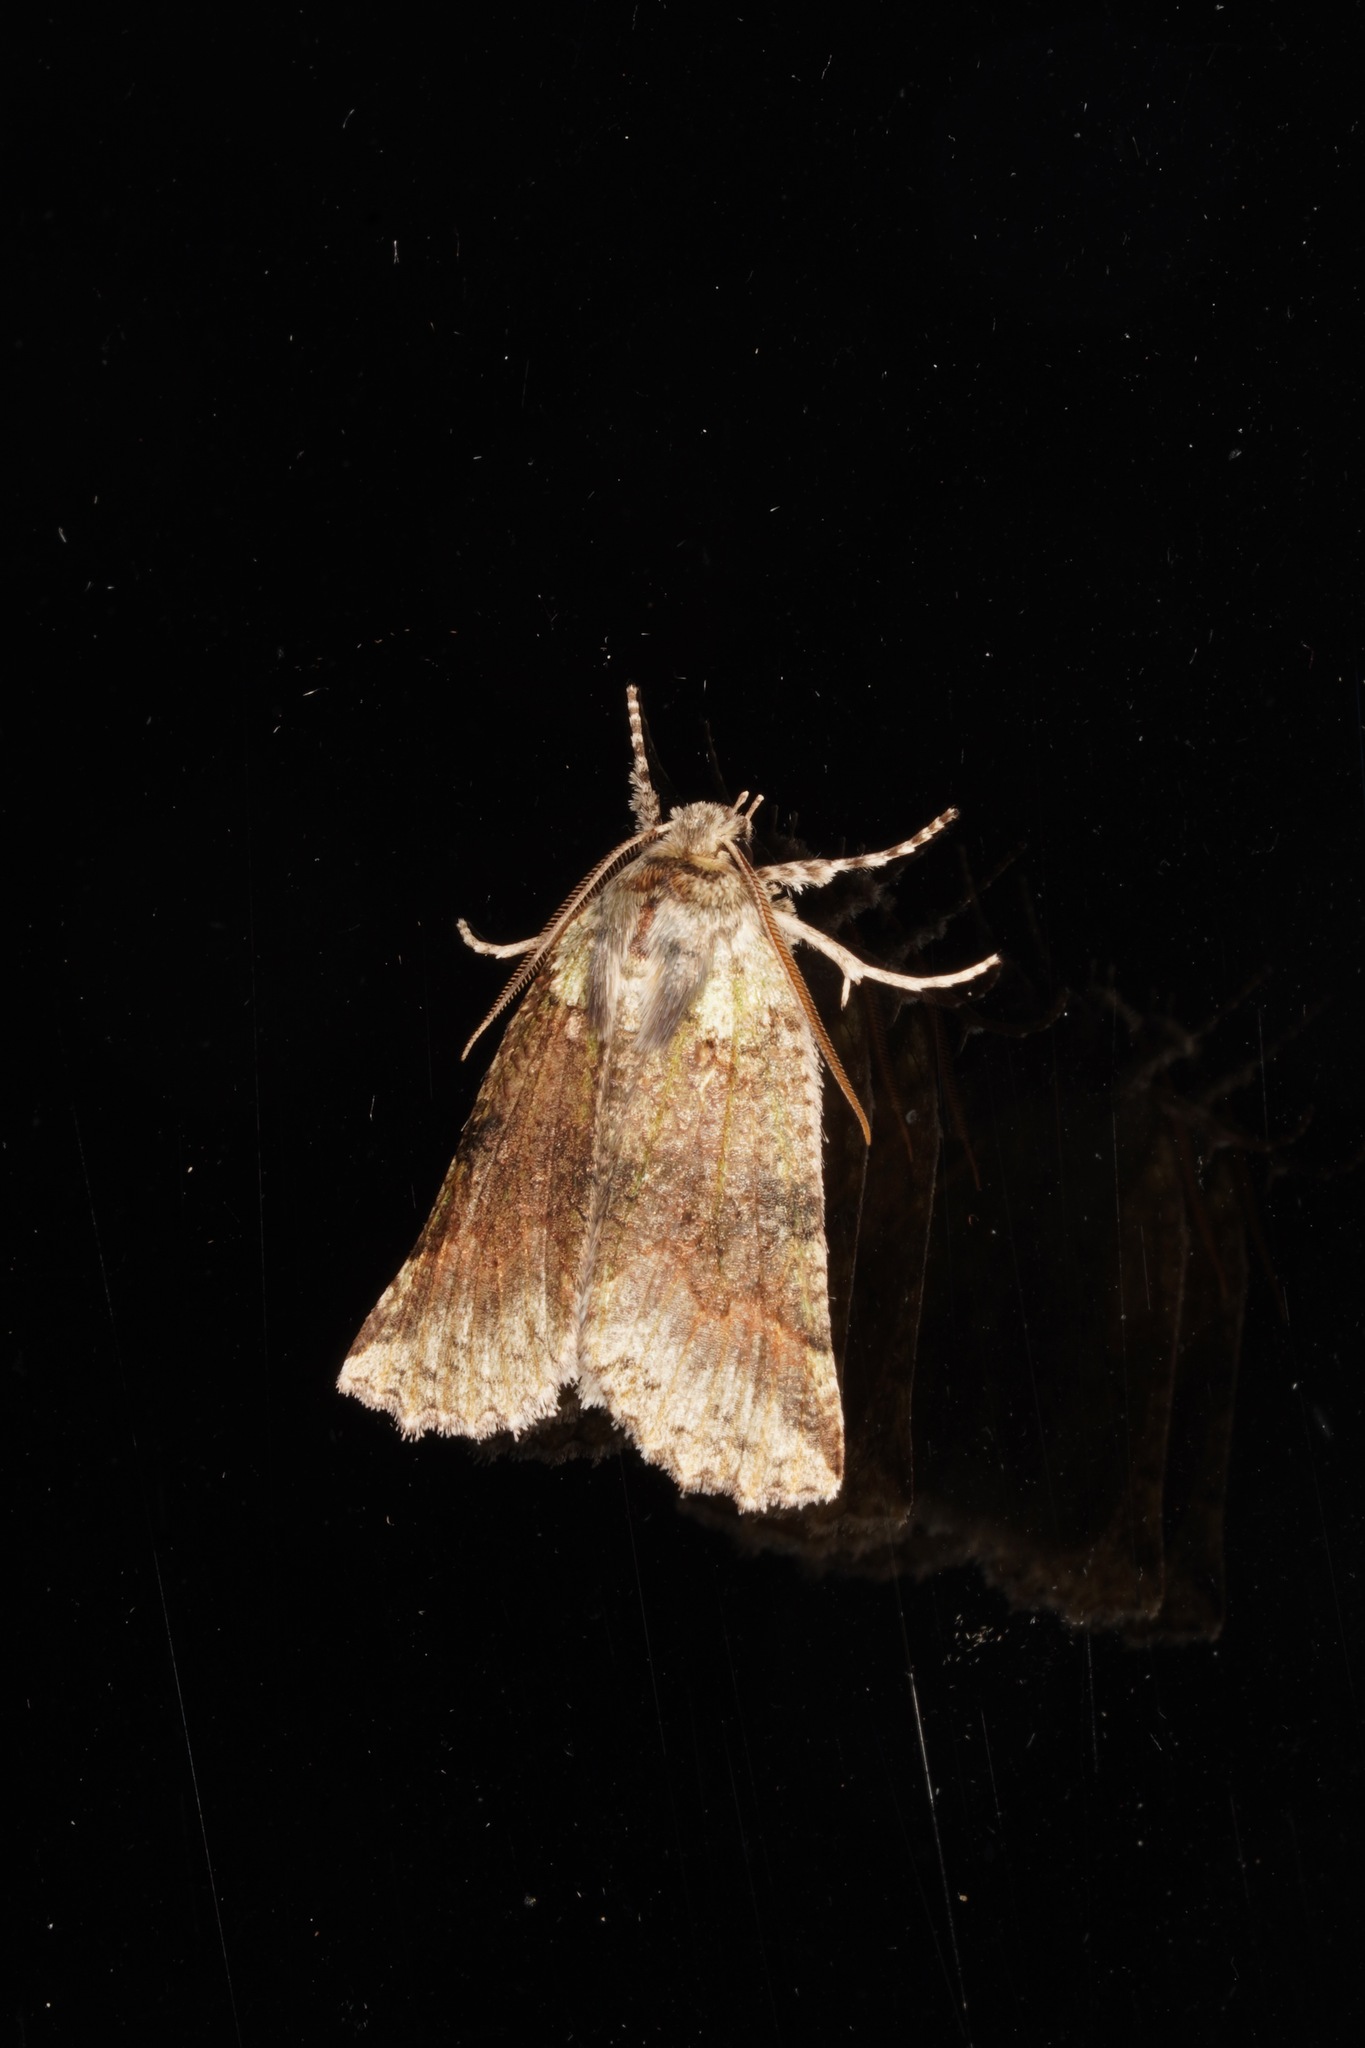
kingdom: Animalia
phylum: Arthropoda
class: Insecta
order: Lepidoptera
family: Geometridae
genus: Declana
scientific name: Declana floccosa
